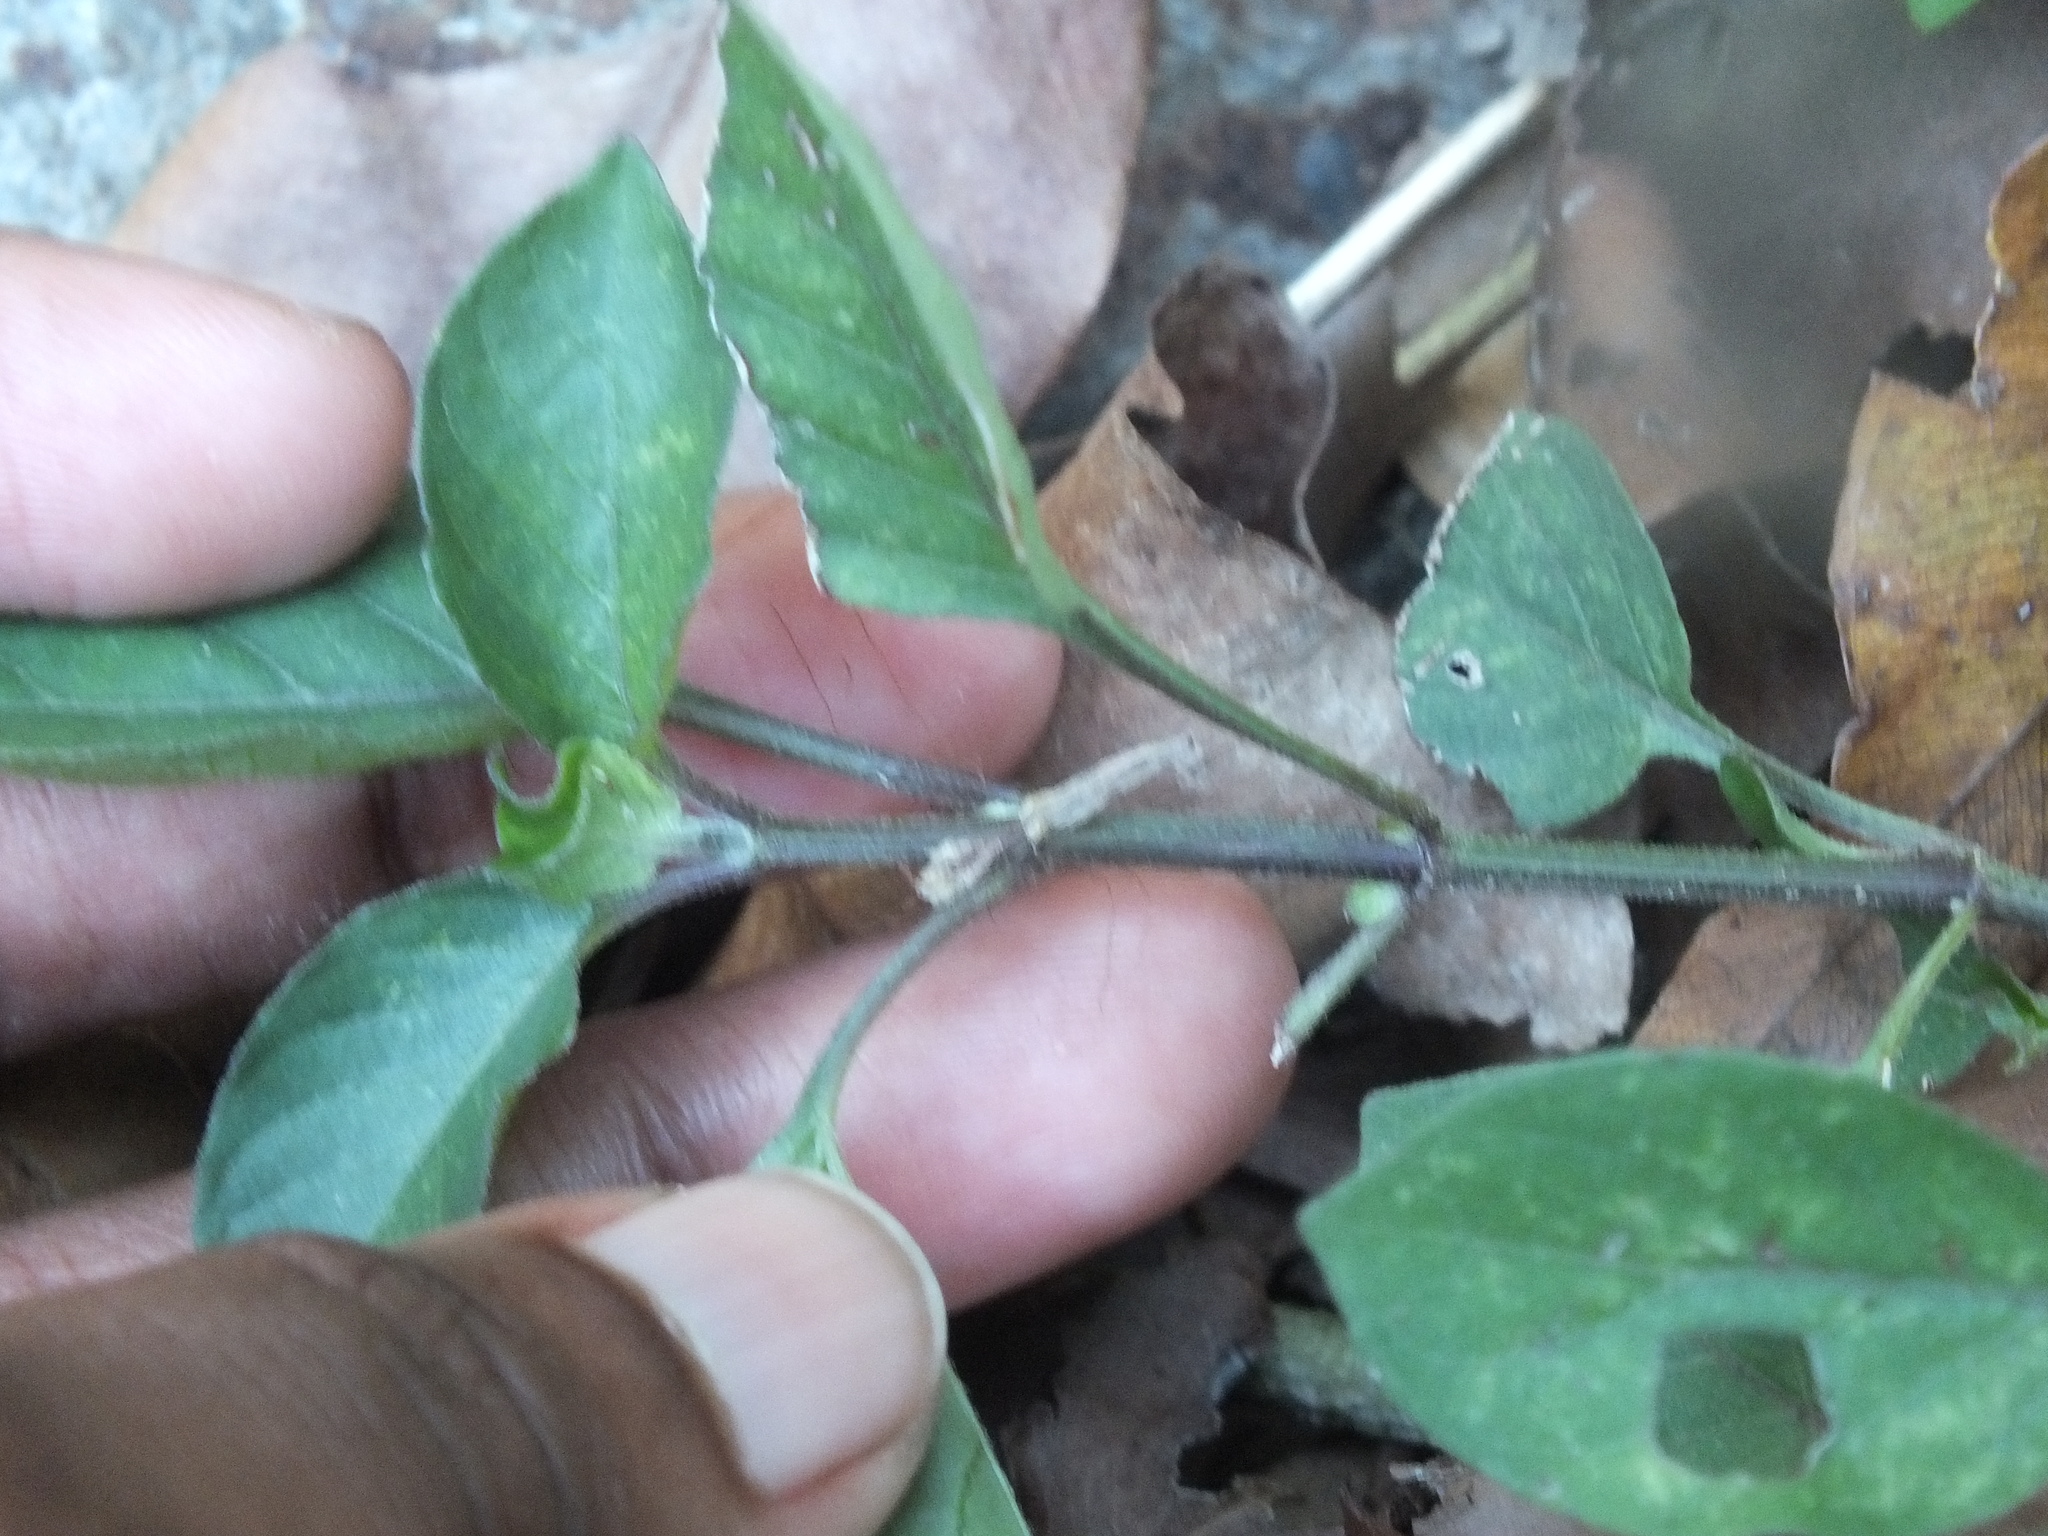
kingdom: Plantae
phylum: Tracheophyta
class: Magnoliopsida
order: Lamiales
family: Acanthaceae
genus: Asystasia
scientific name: Asystasia gangetica
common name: Chinese violet
